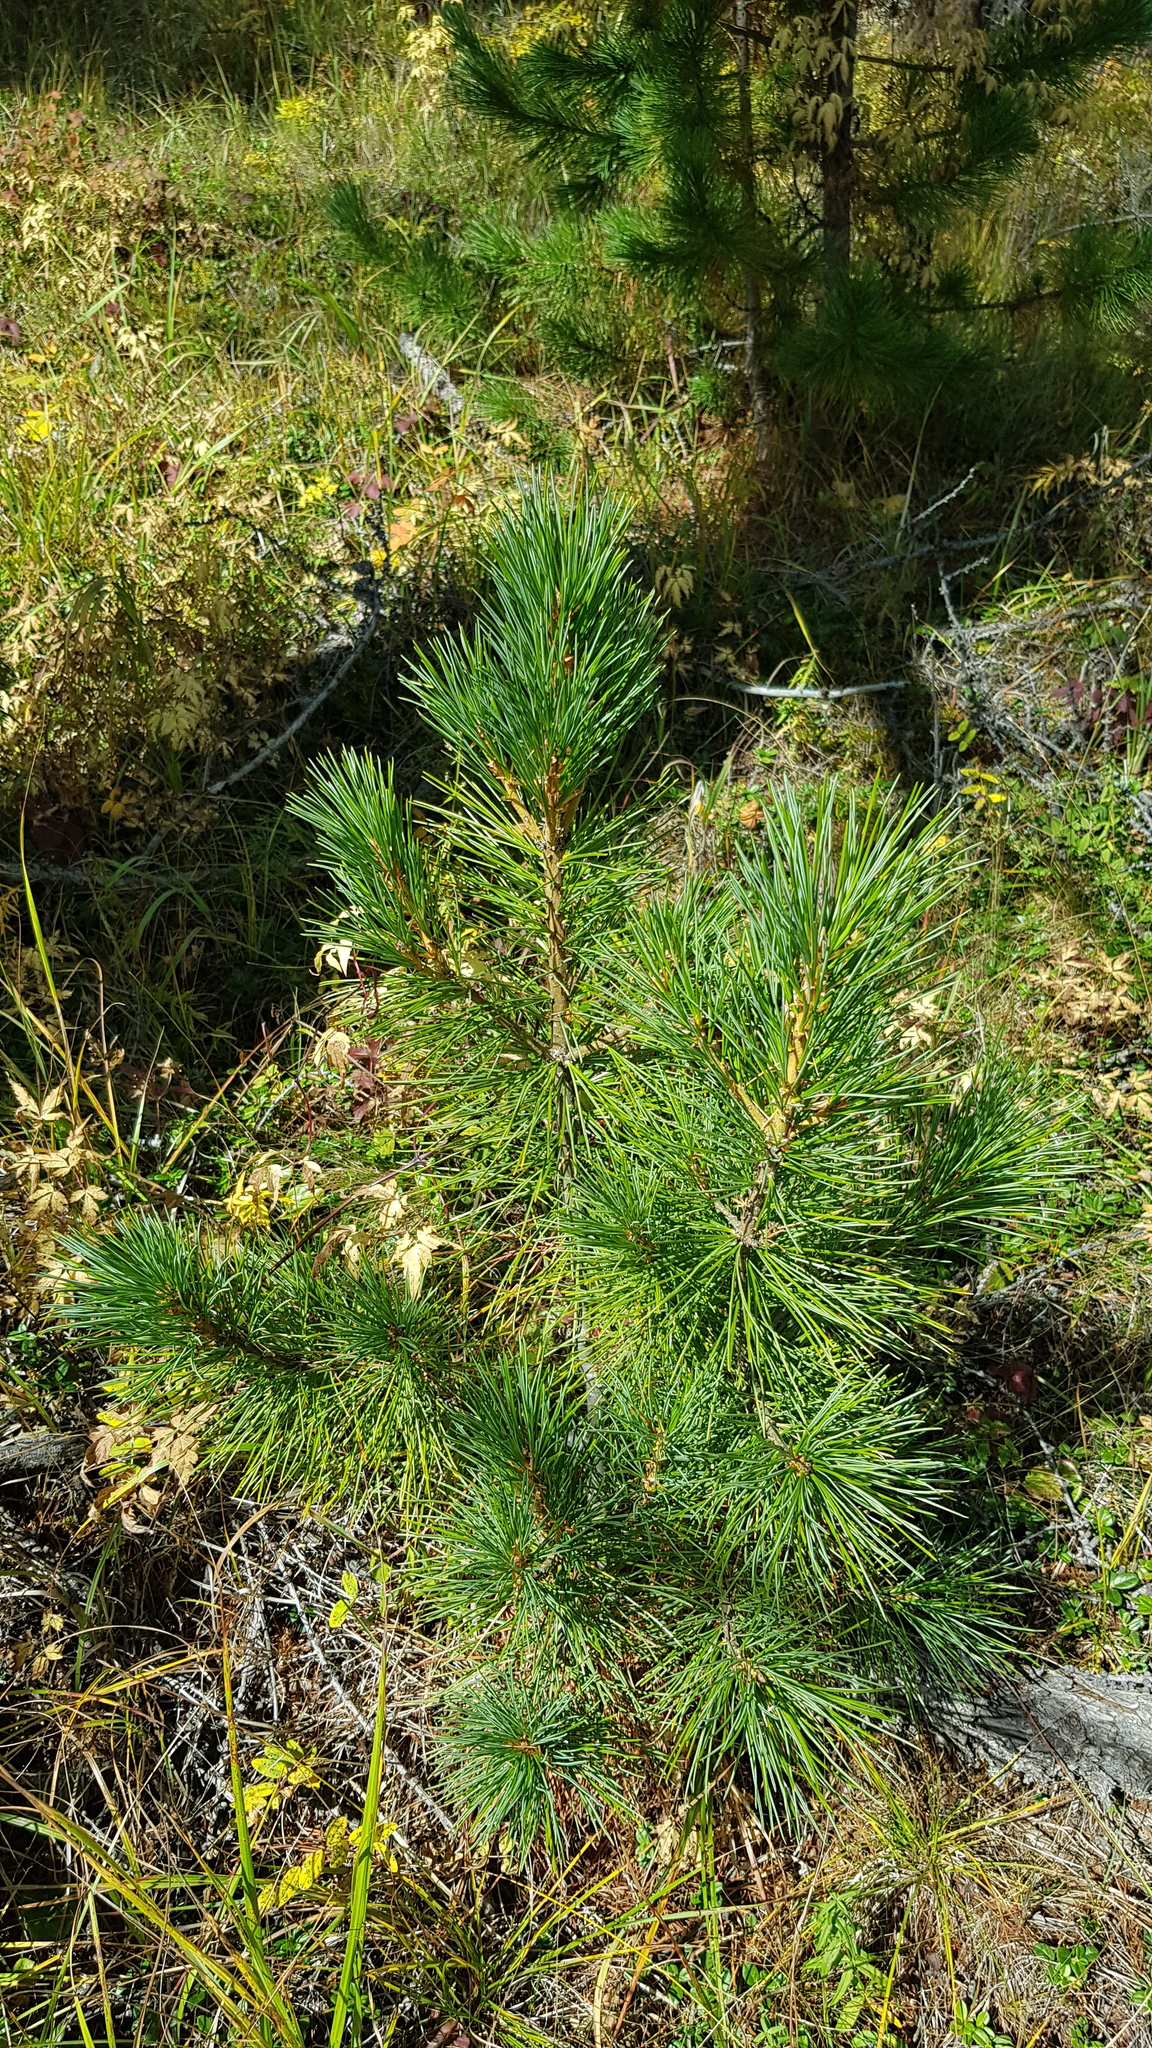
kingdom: Plantae
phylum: Tracheophyta
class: Pinopsida
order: Pinales
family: Pinaceae
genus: Pinus
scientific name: Pinus sibirica
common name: Siberian pine
